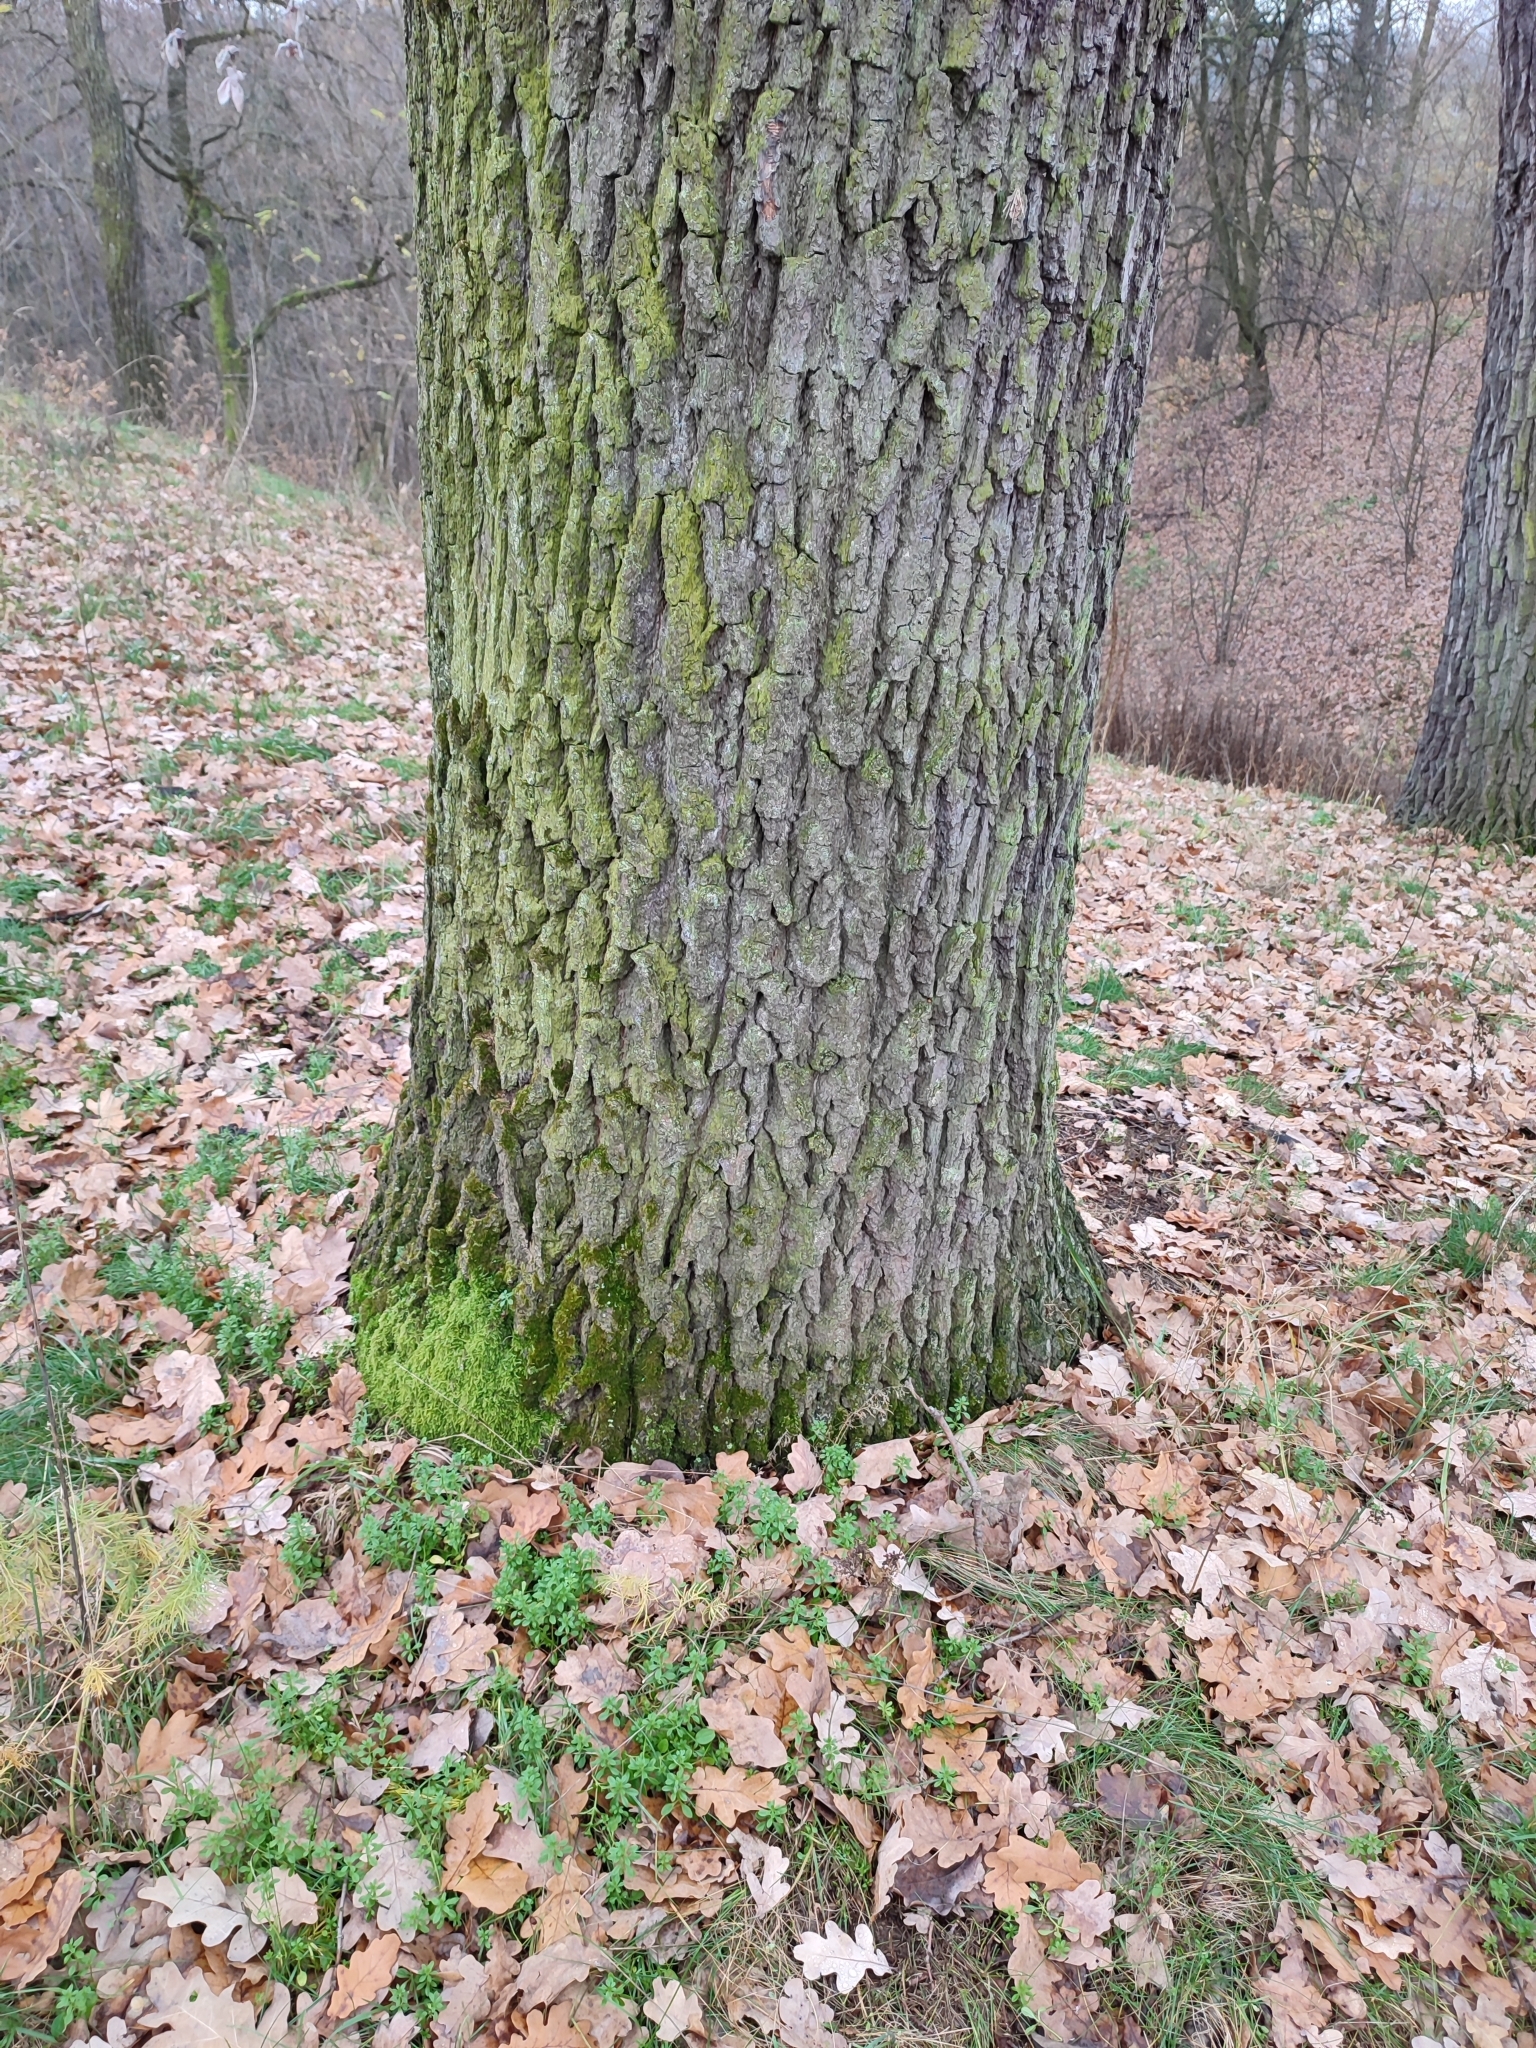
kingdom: Plantae
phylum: Tracheophyta
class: Magnoliopsida
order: Fagales
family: Fagaceae
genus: Quercus
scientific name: Quercus robur
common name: Pedunculate oak
